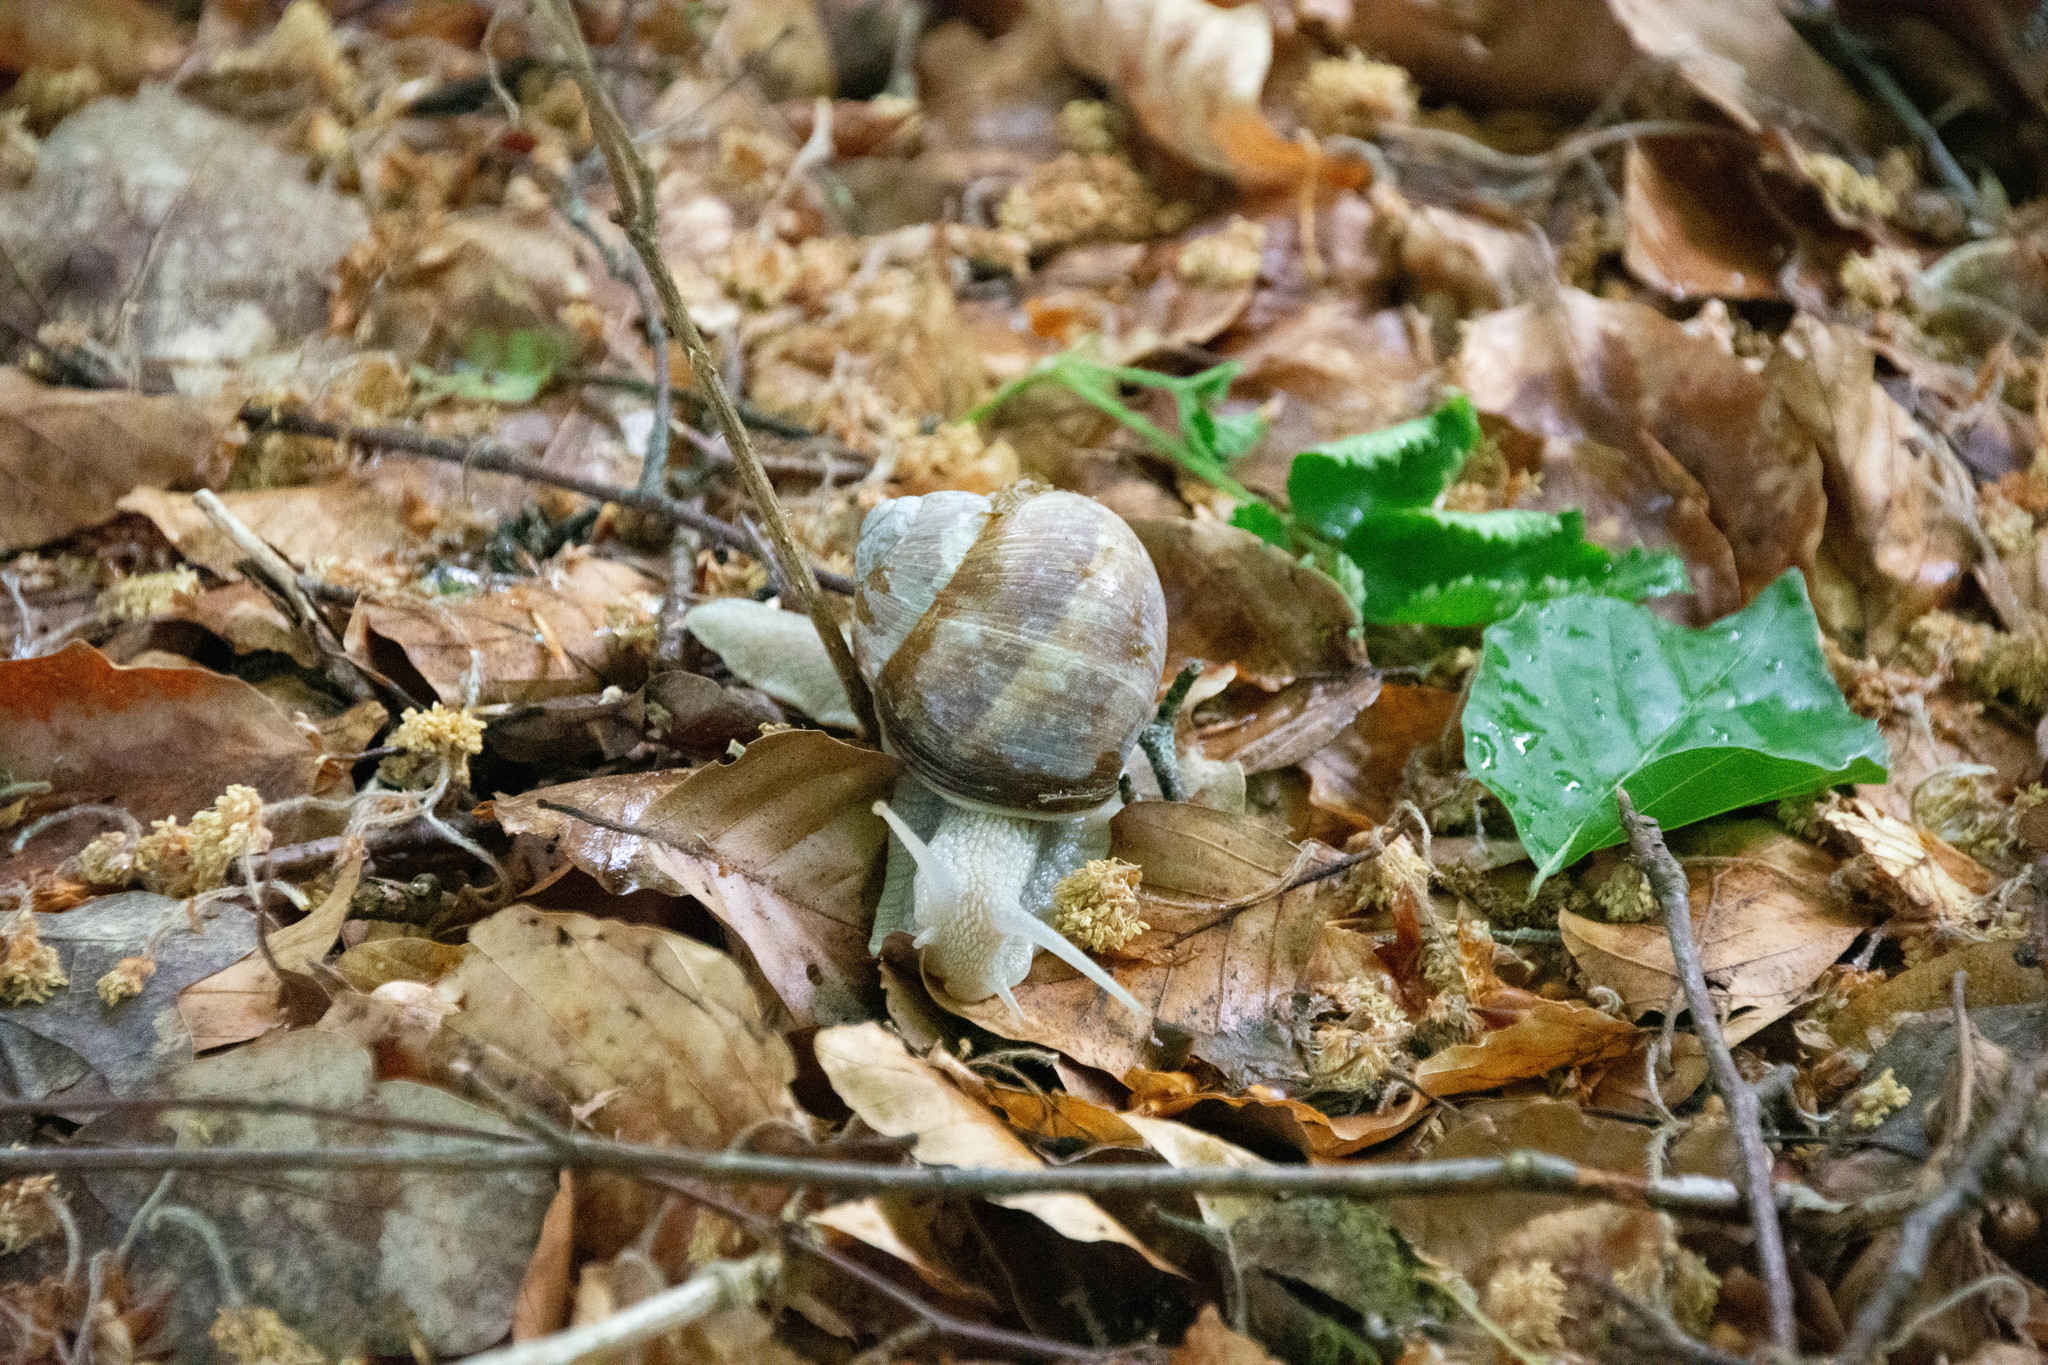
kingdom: Animalia
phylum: Mollusca
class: Gastropoda
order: Stylommatophora
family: Helicidae
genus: Helix
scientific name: Helix pomatia
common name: Roman snail
